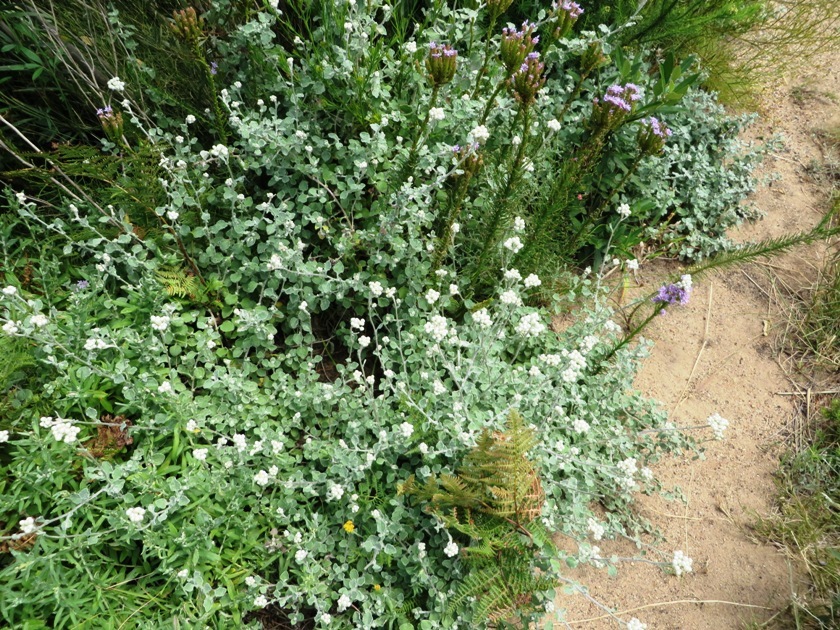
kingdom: Plantae
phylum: Tracheophyta
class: Magnoliopsida
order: Asterales
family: Asteraceae
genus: Helichrysum
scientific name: Helichrysum pandurifolium
